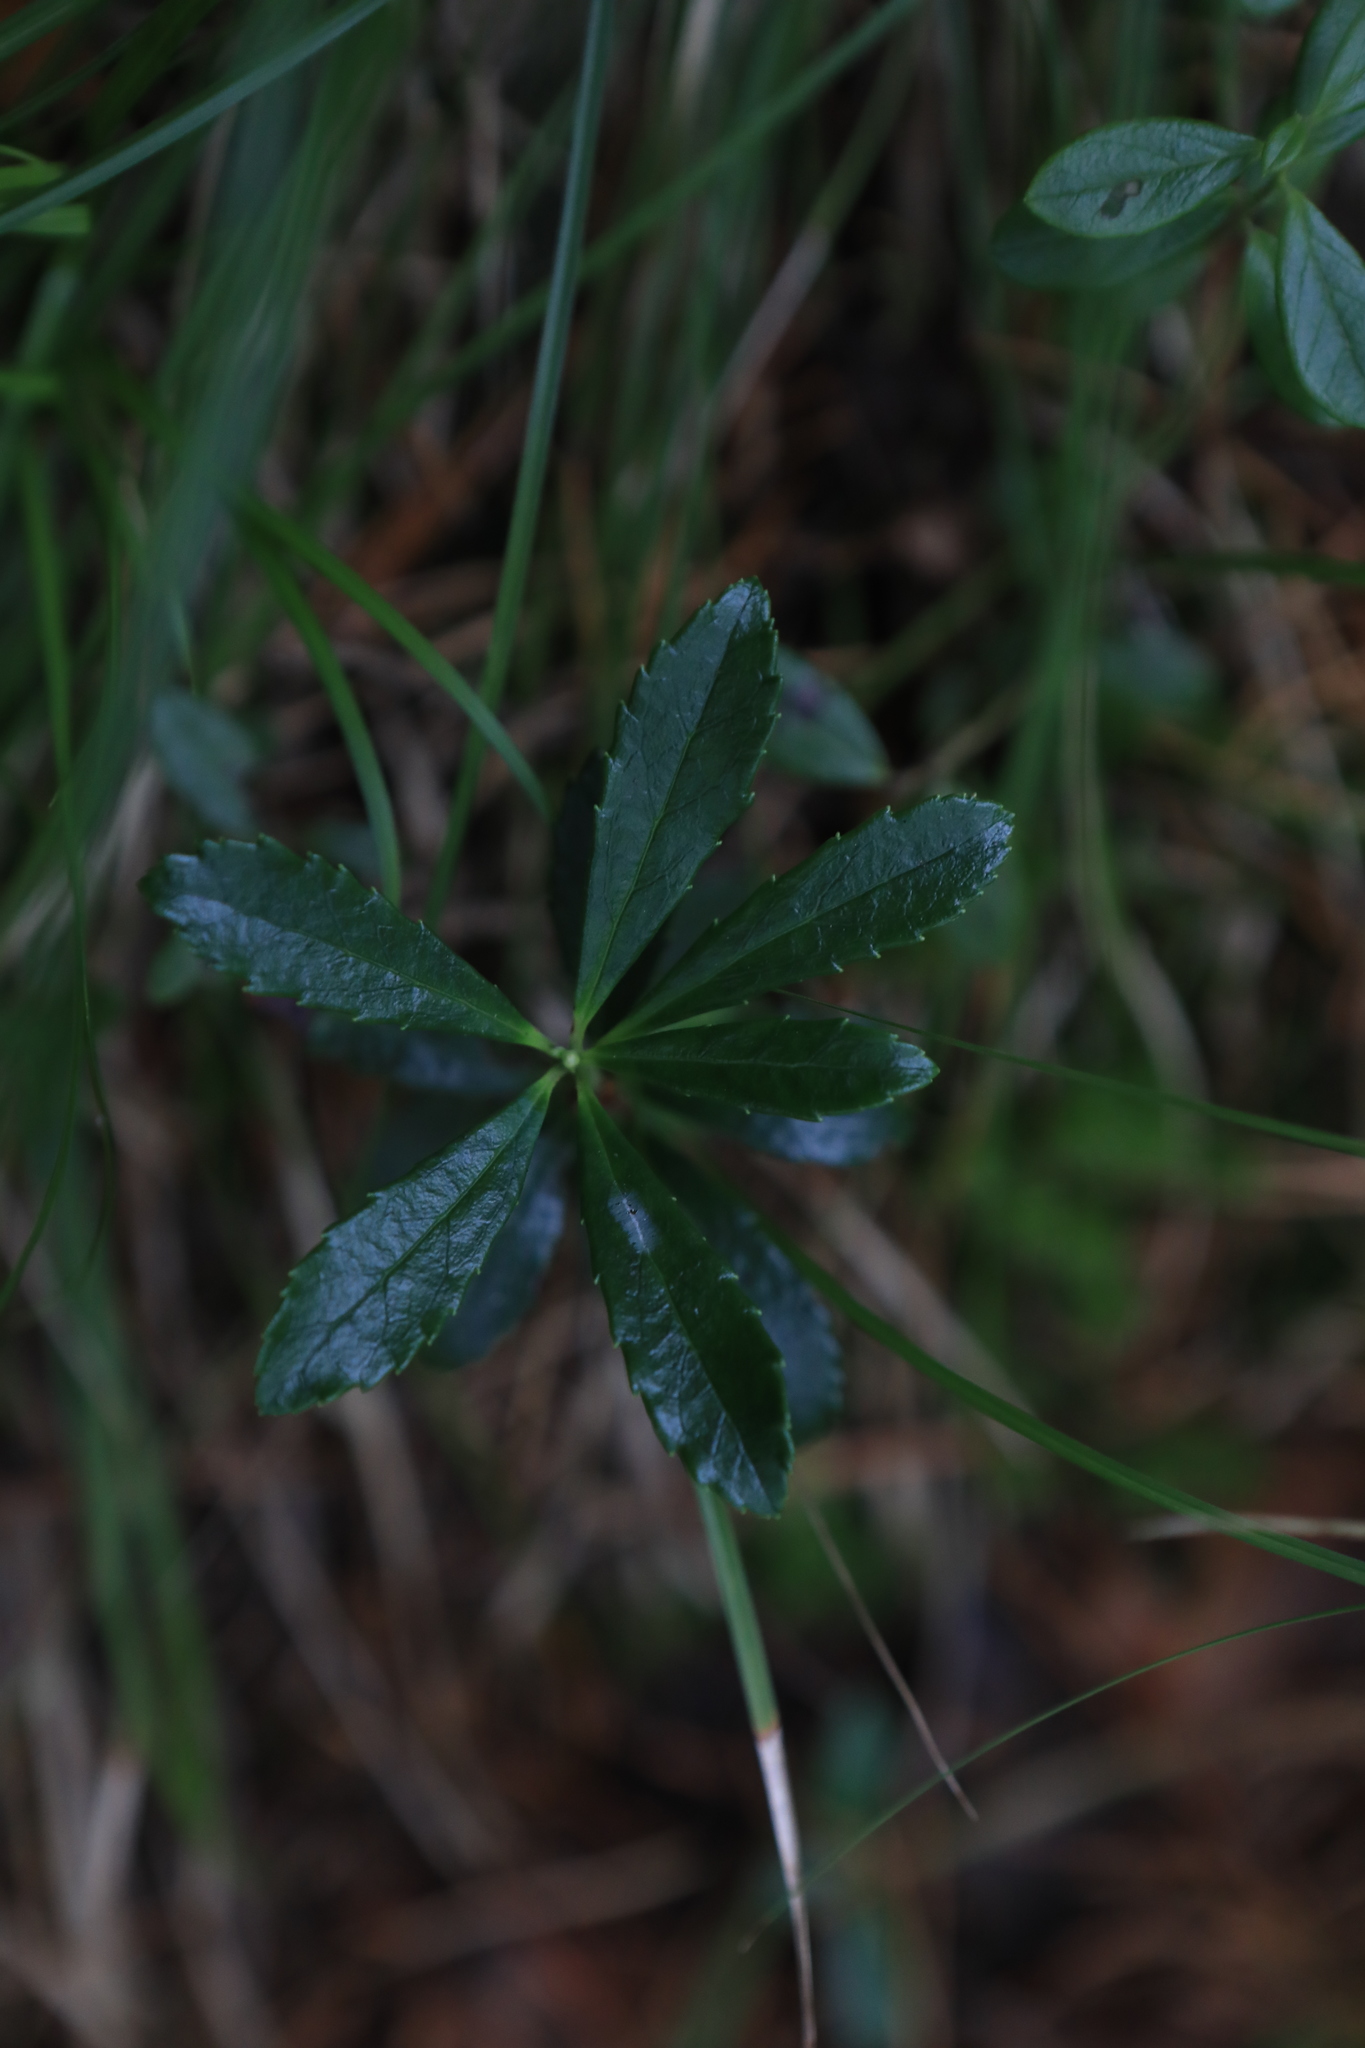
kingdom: Plantae
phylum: Tracheophyta
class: Magnoliopsida
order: Ericales
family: Ericaceae
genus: Chimaphila
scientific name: Chimaphila umbellata
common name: Pipsissewa
